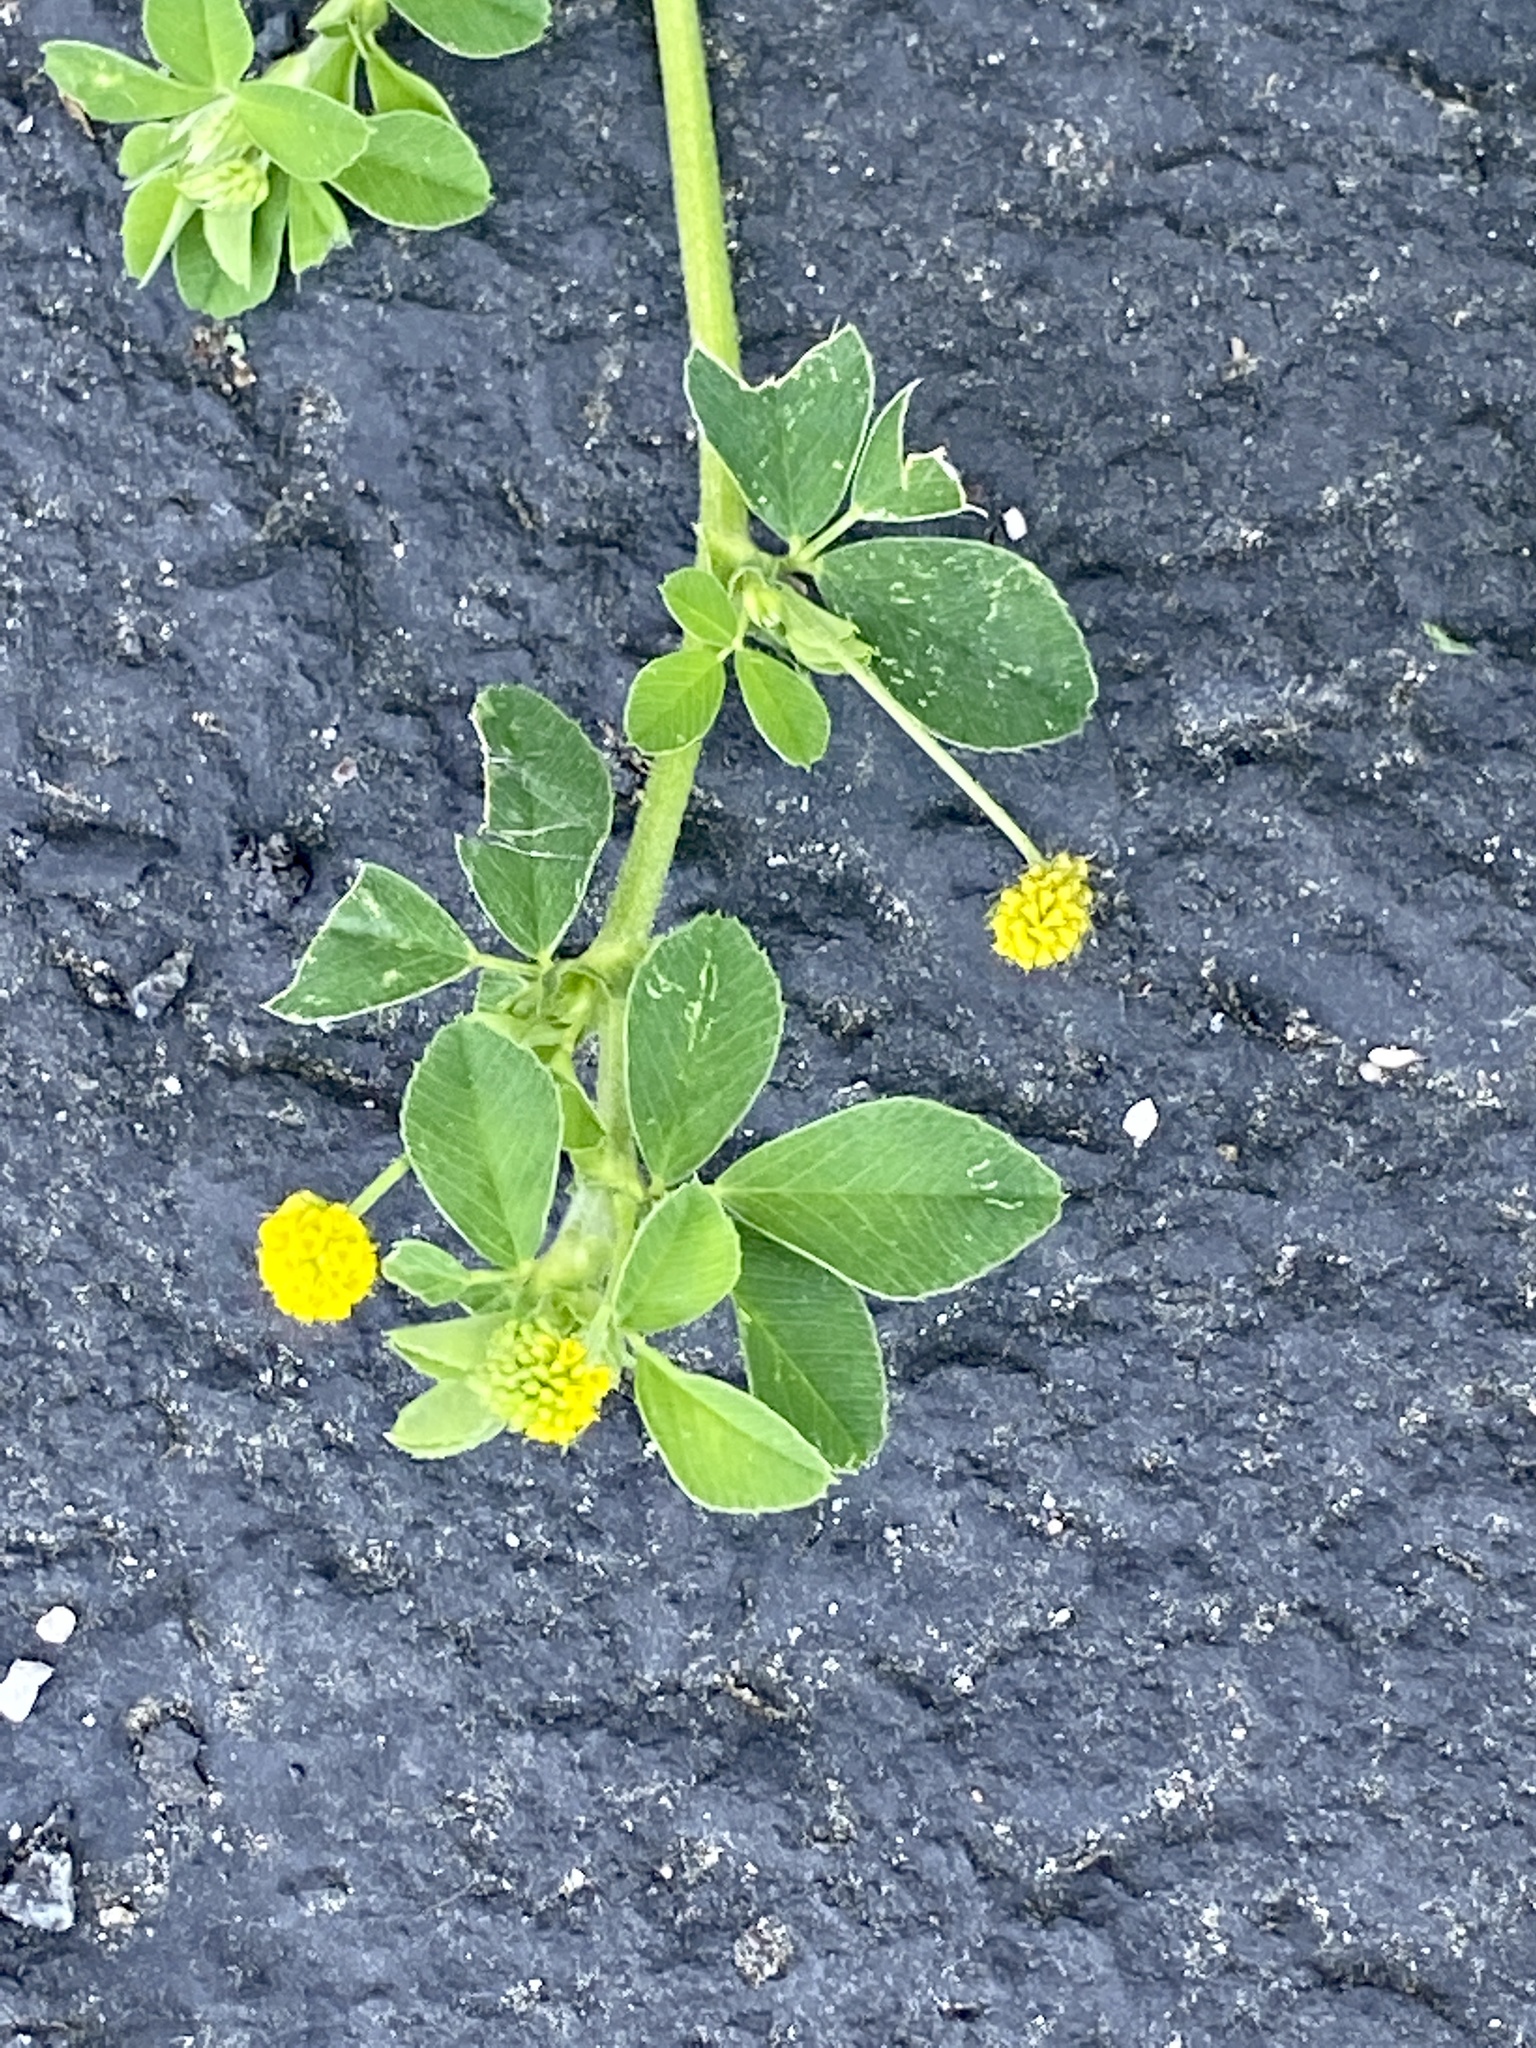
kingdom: Plantae
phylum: Tracheophyta
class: Magnoliopsida
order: Fabales
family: Fabaceae
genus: Medicago
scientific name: Medicago lupulina
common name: Black medick
